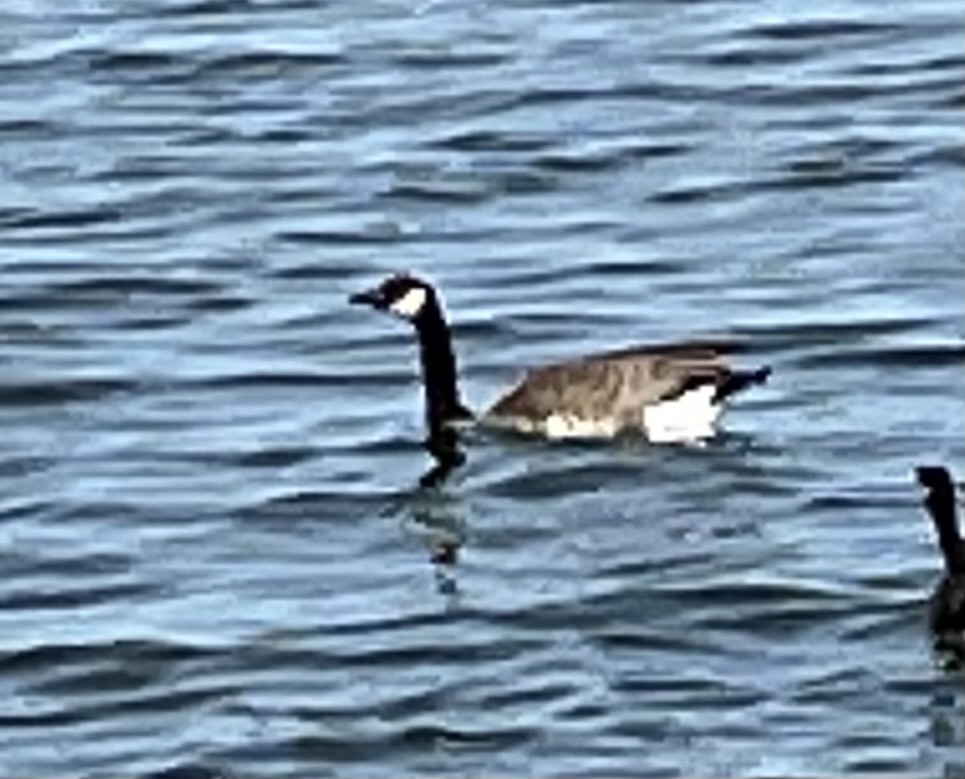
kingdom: Animalia
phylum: Chordata
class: Aves
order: Anseriformes
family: Anatidae
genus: Branta
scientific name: Branta canadensis
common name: Canada goose
